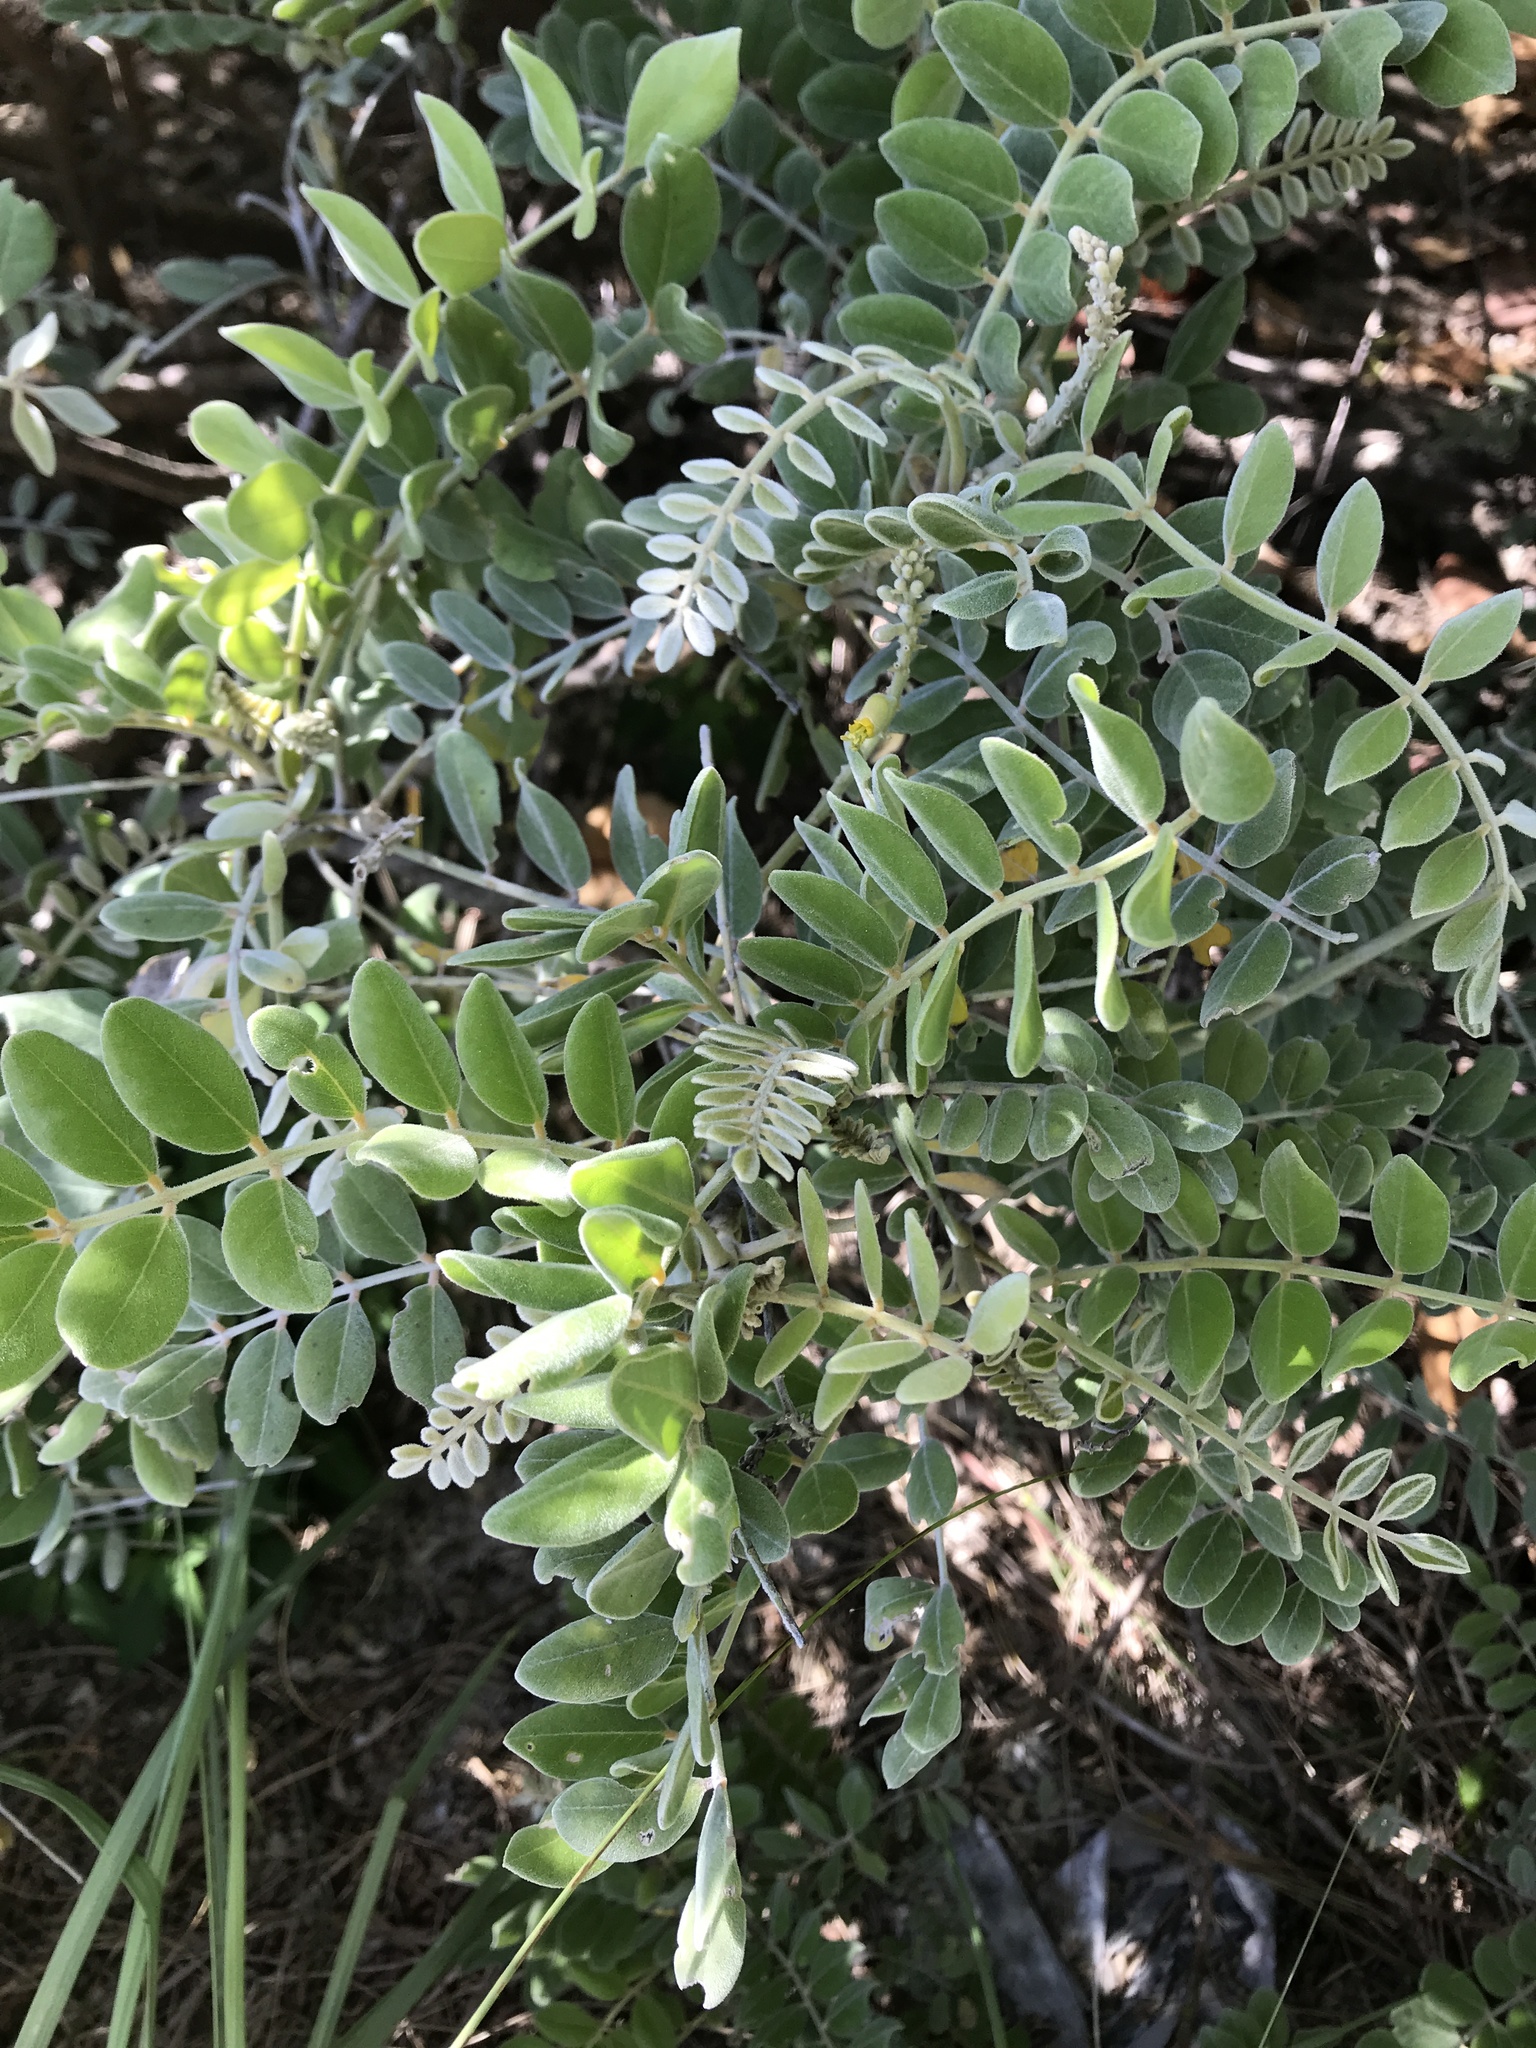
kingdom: Plantae
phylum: Tracheophyta
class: Magnoliopsida
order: Fabales
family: Fabaceae
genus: Sophora
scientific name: Sophora tomentosa
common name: Yellow necklacepod
